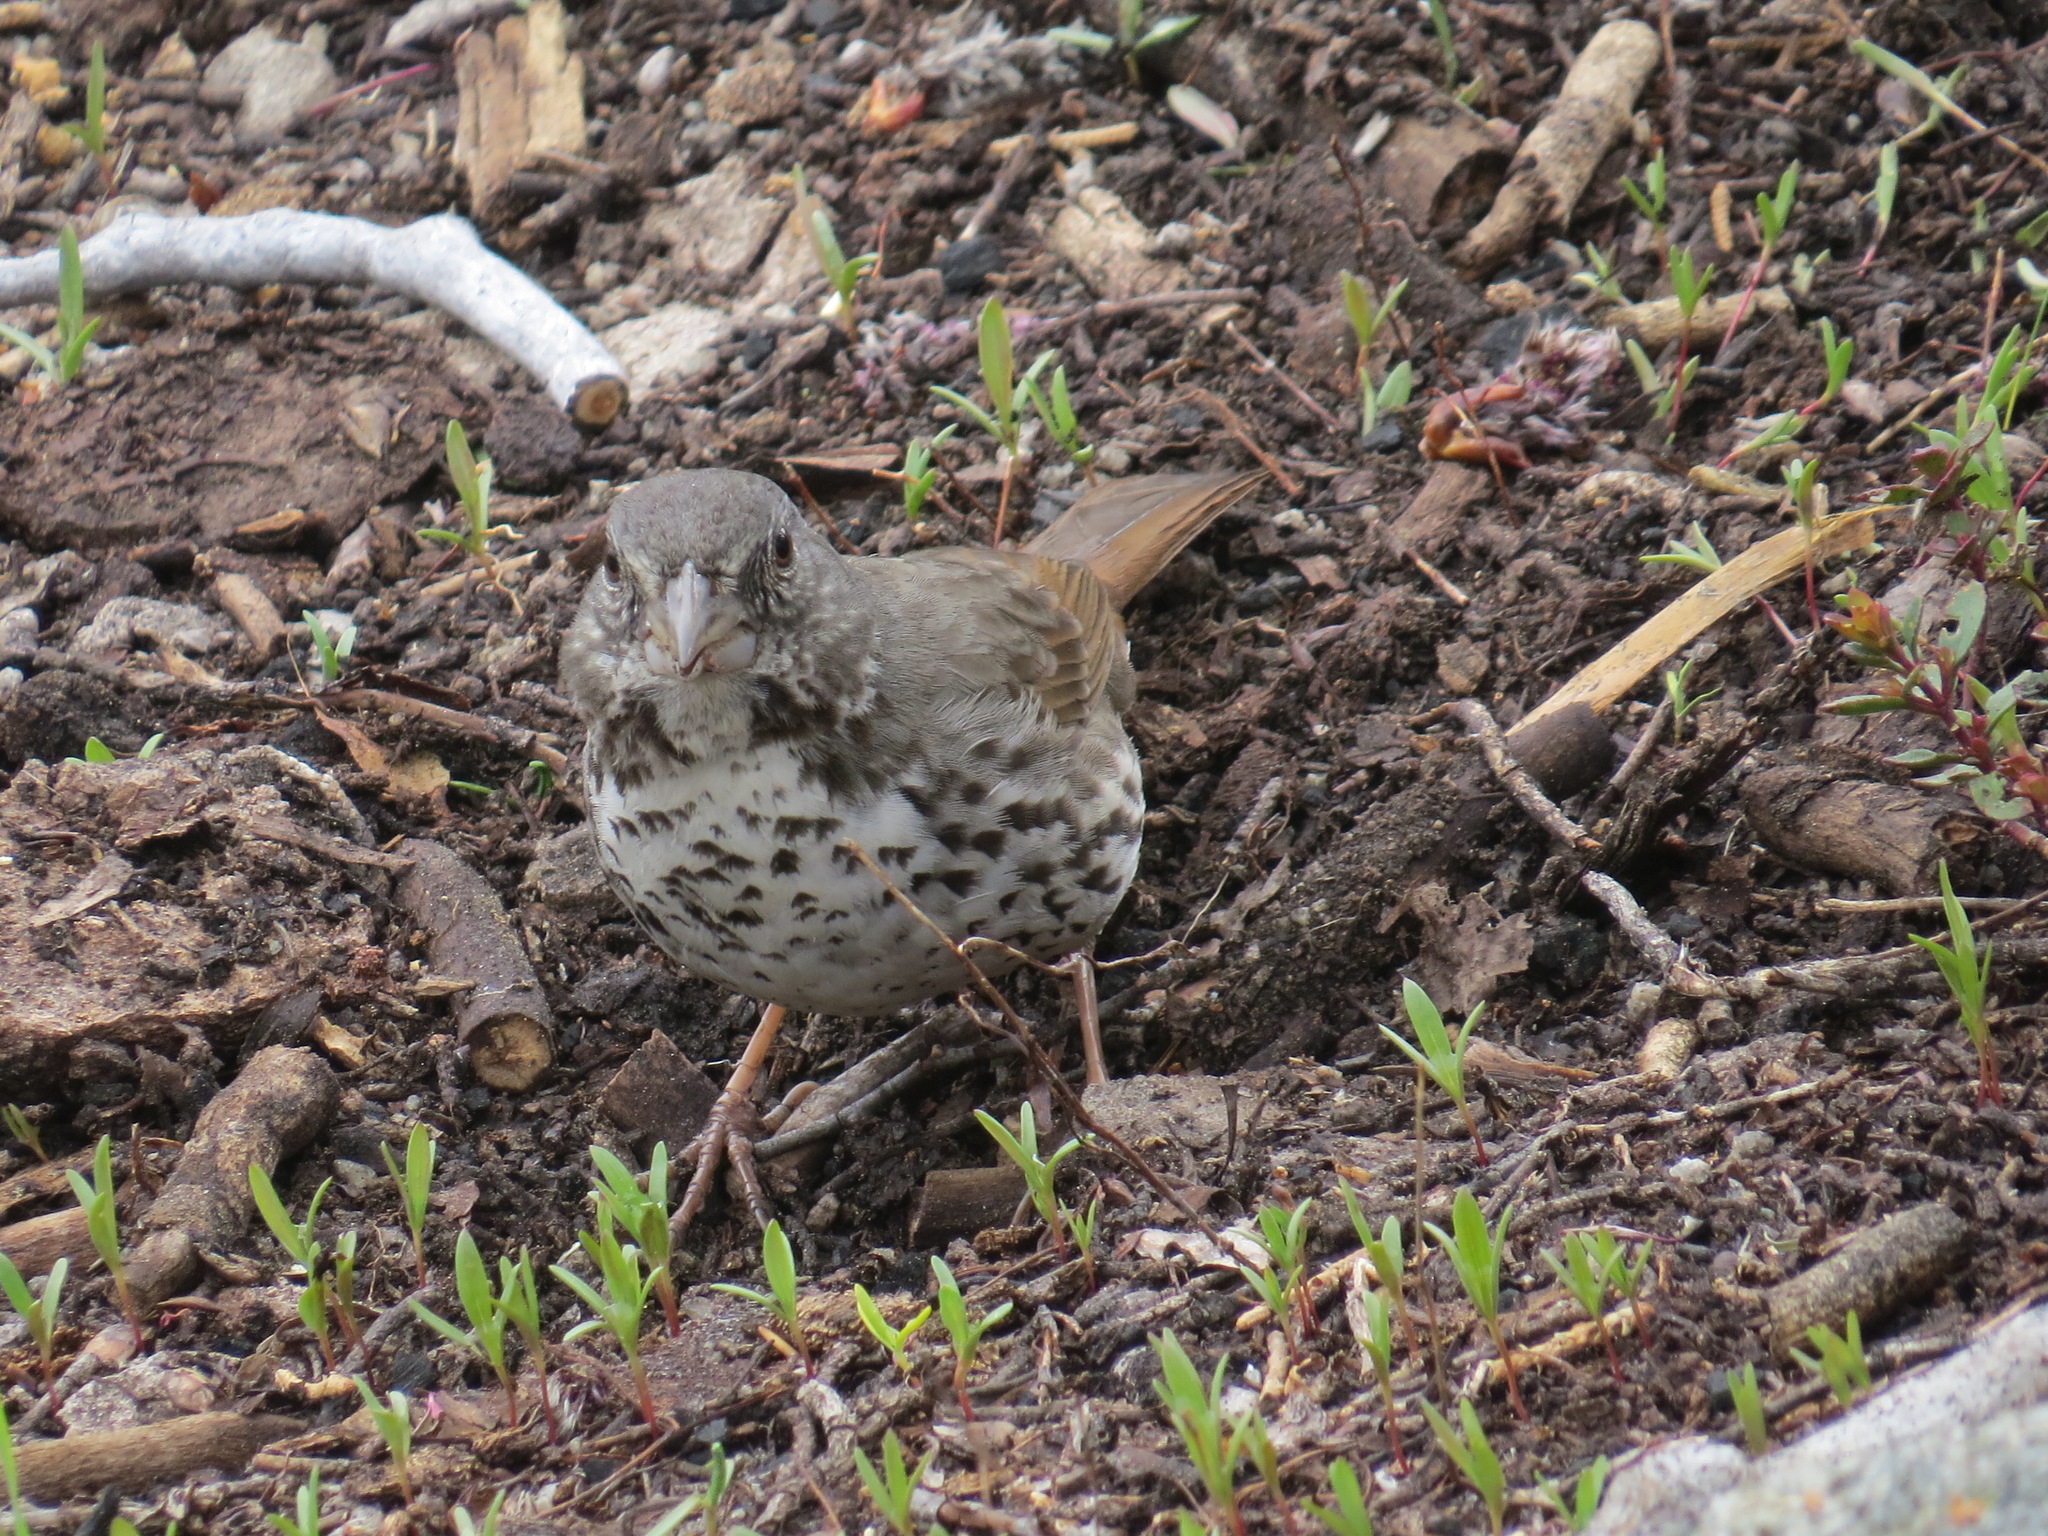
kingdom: Animalia
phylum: Chordata
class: Aves
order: Passeriformes
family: Passerellidae
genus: Passerella
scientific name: Passerella iliaca
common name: Fox sparrow
